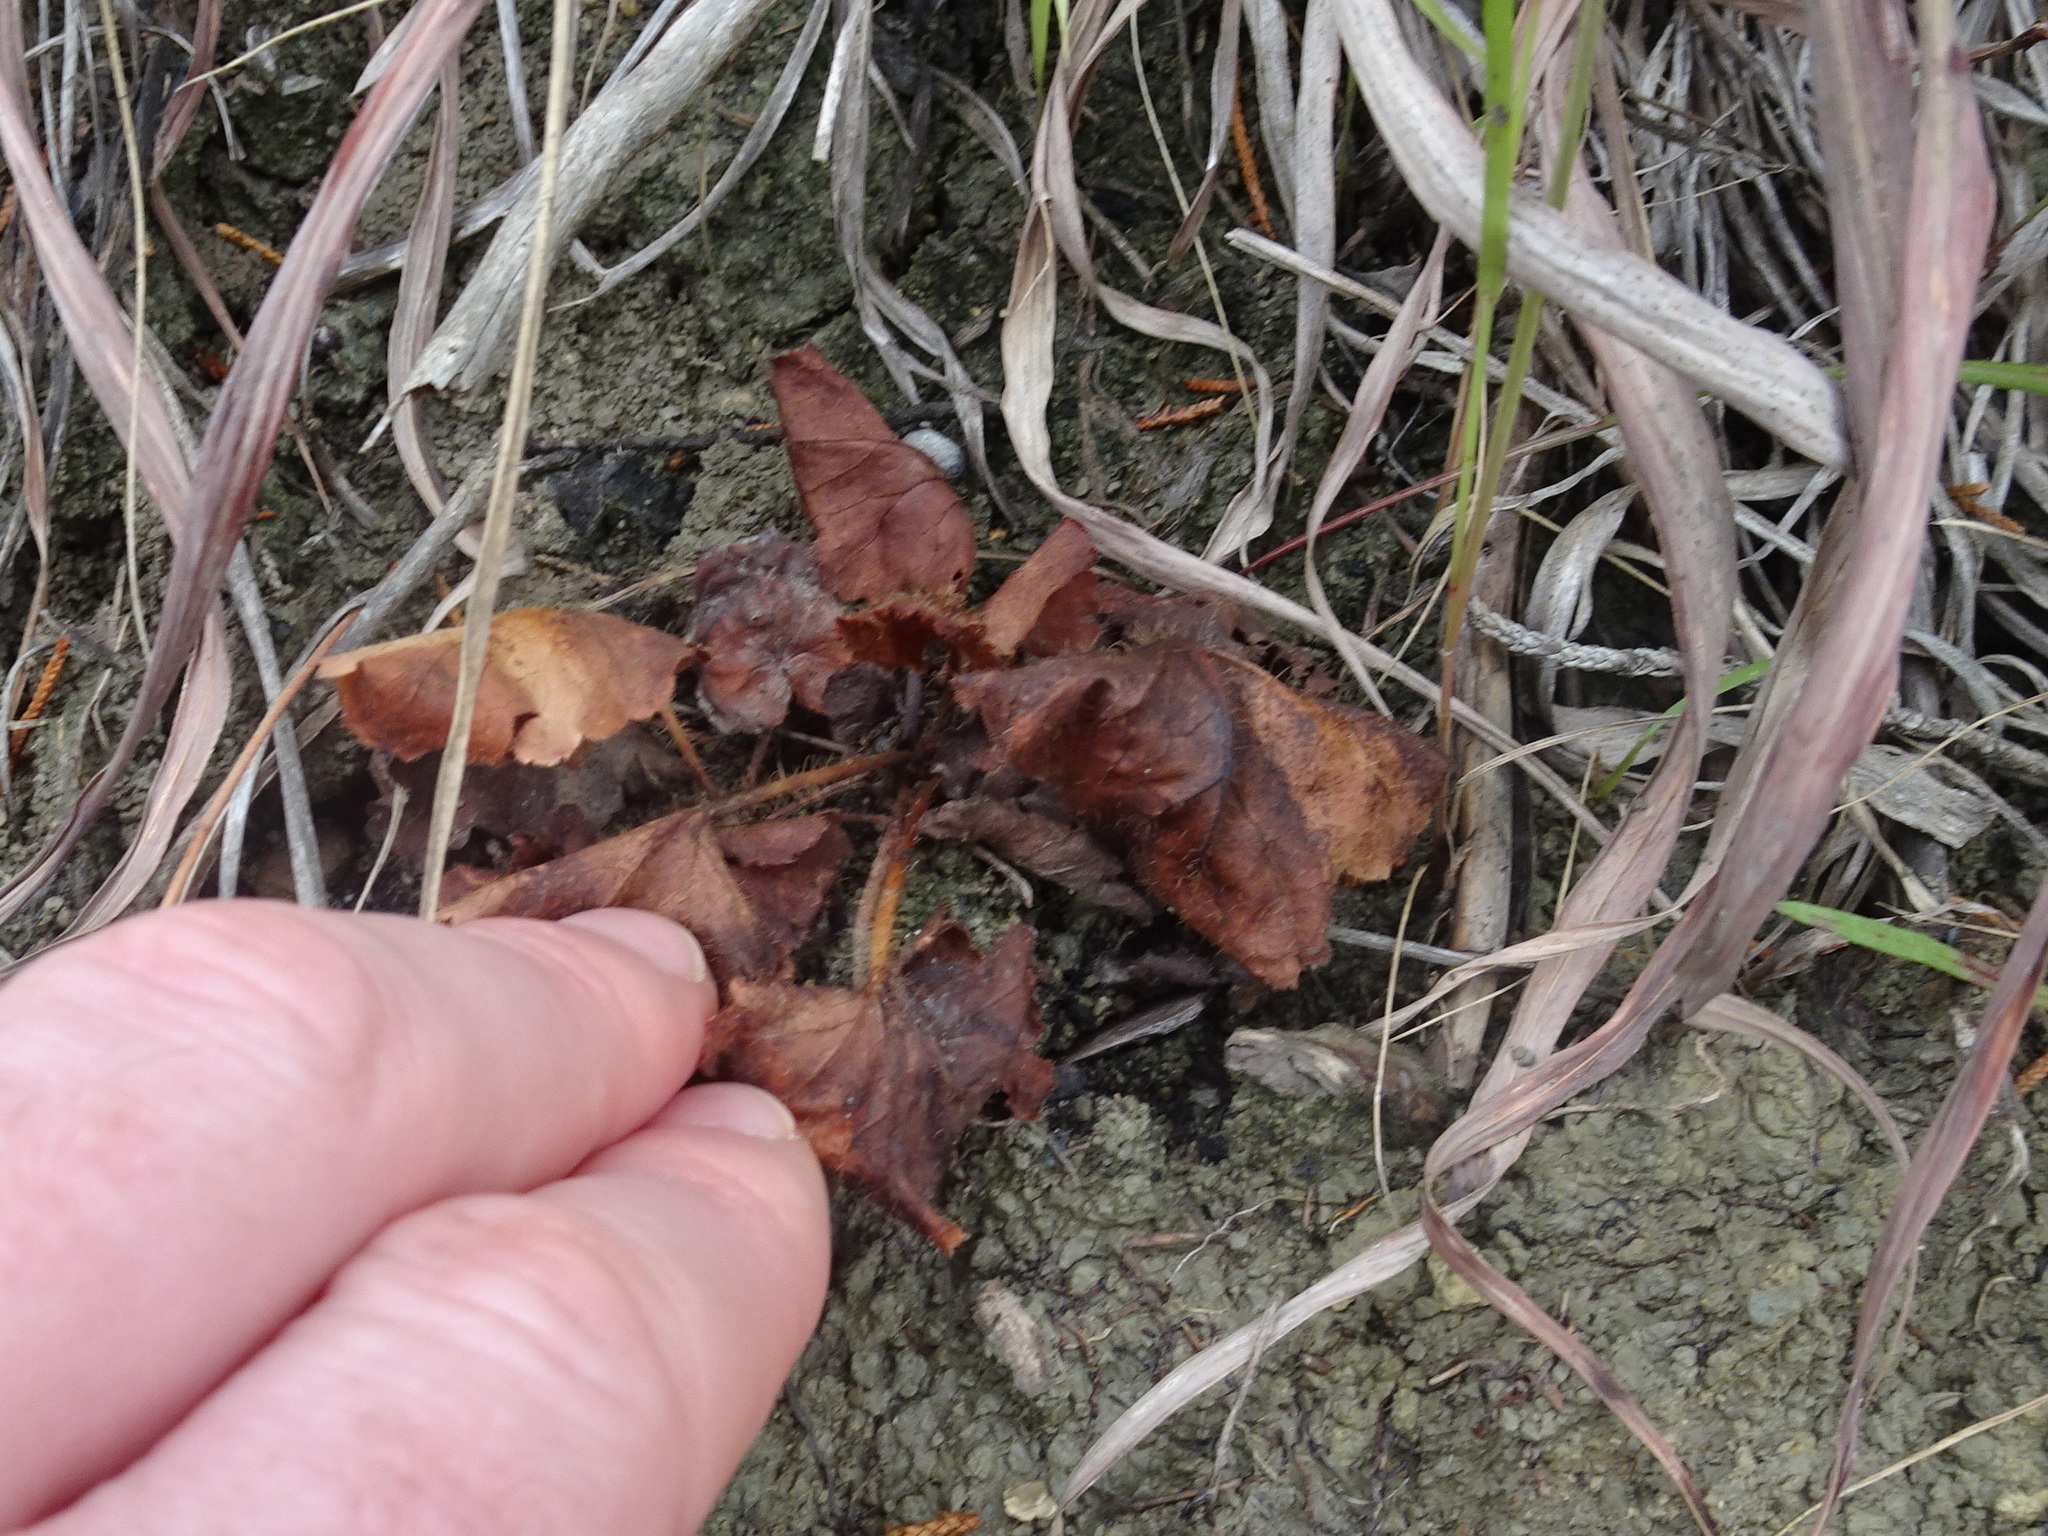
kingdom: Plantae
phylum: Tracheophyta
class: Magnoliopsida
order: Saxifragales
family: Saxifragaceae
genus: Heuchera
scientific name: Heuchera richardsonii
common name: Richardson's alumroot
